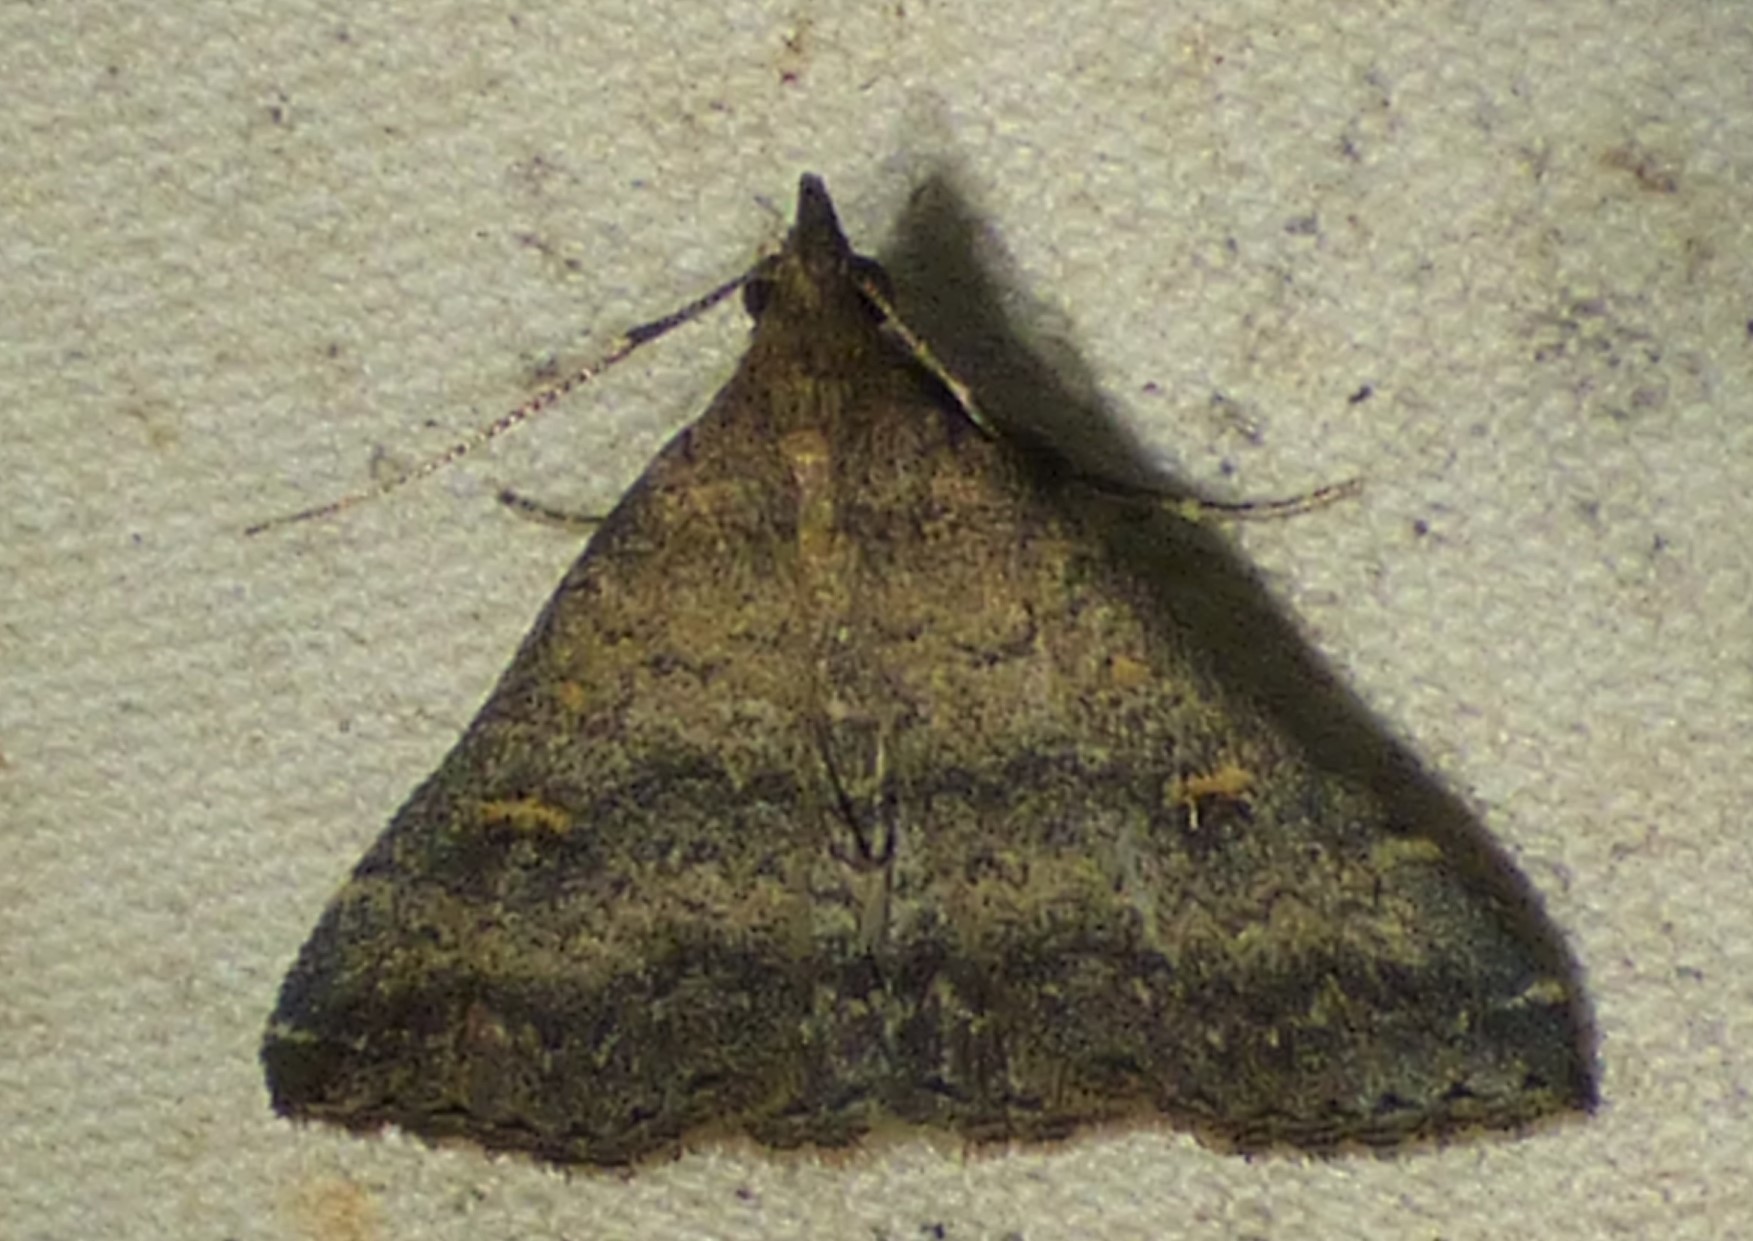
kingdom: Animalia
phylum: Arthropoda
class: Insecta
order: Lepidoptera
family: Erebidae
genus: Tetanolita
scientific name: Tetanolita floridana
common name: Florida tetanolita moth
